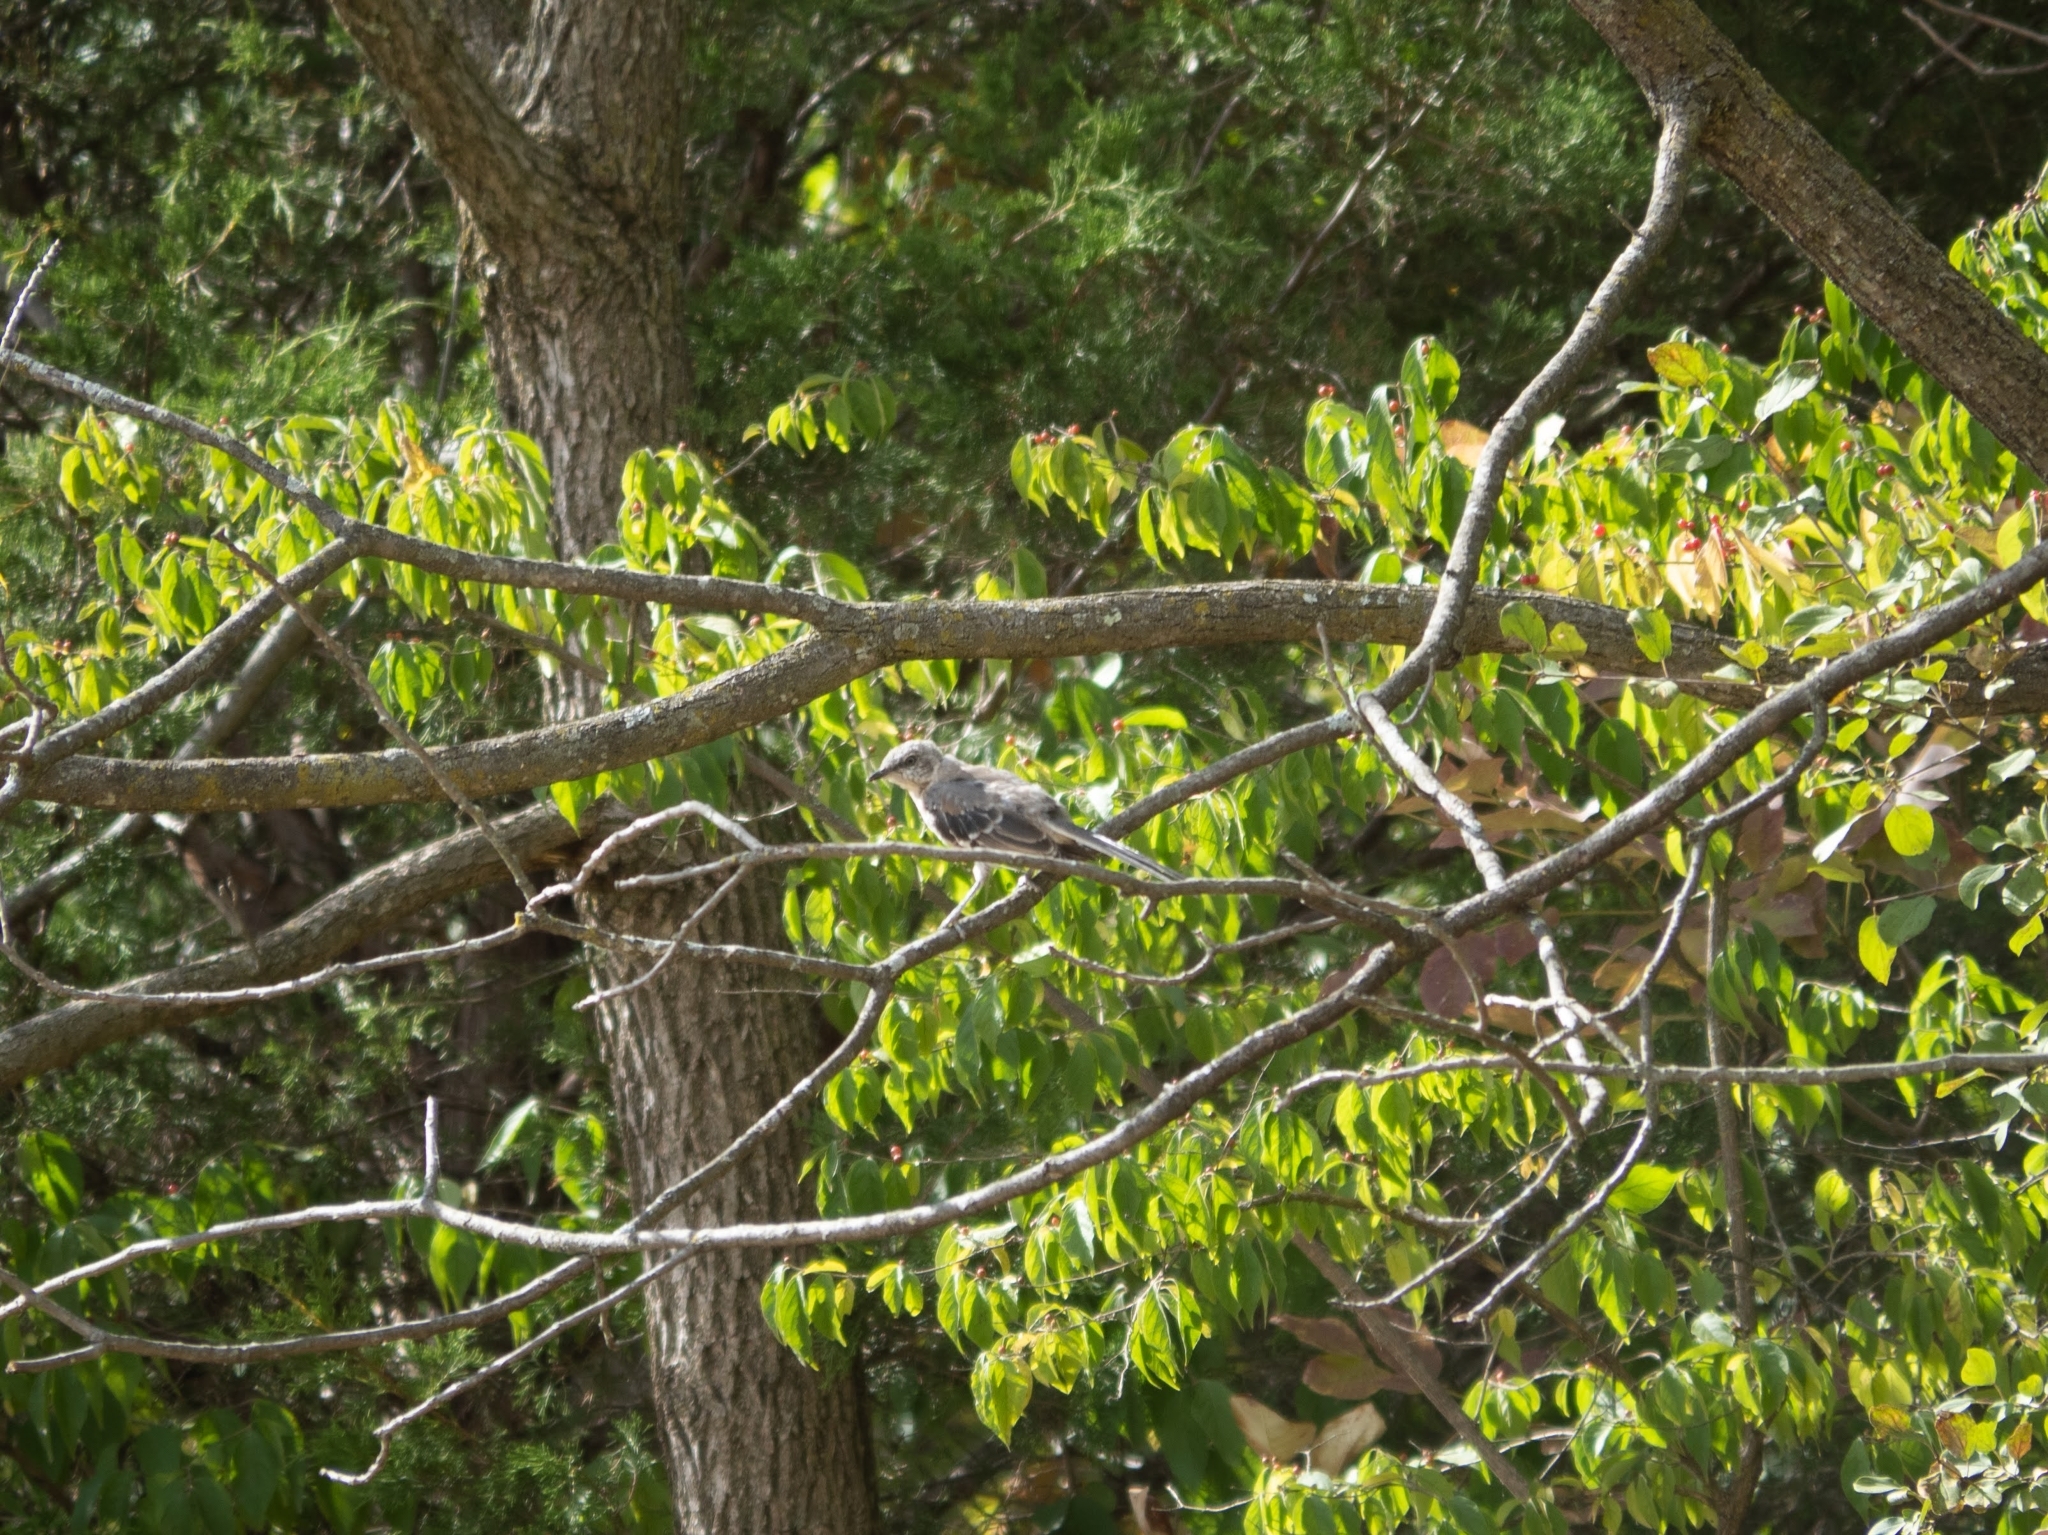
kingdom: Animalia
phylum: Chordata
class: Aves
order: Passeriformes
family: Mimidae
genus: Mimus
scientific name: Mimus polyglottos
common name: Northern mockingbird
